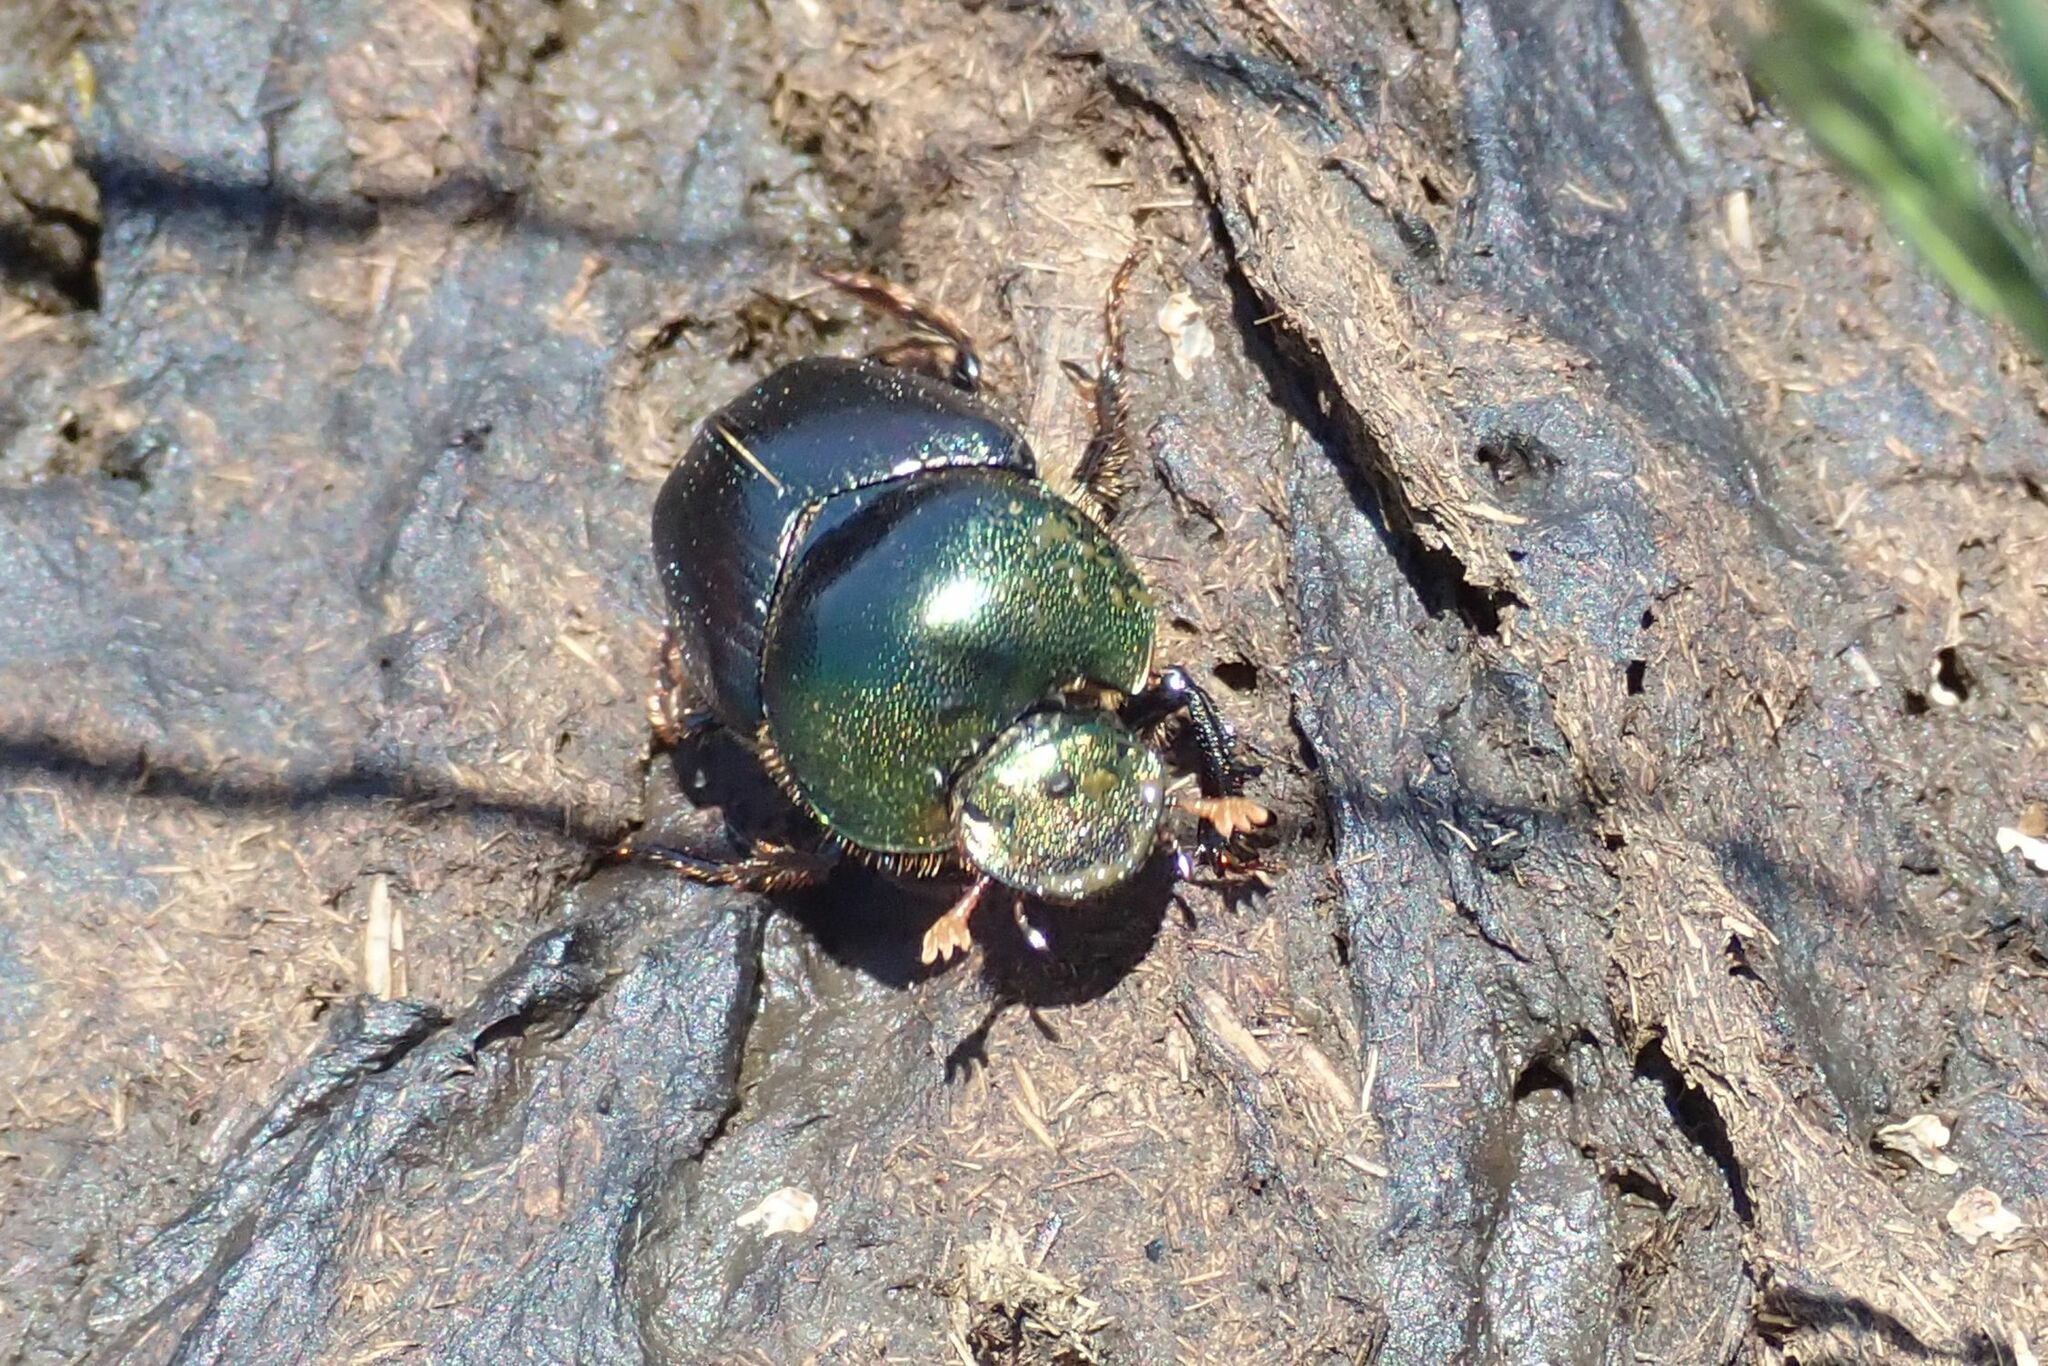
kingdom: Animalia
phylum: Arthropoda
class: Insecta
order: Coleoptera
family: Scarabaeidae
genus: Proagoderus
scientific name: Proagoderus chalcostolus
